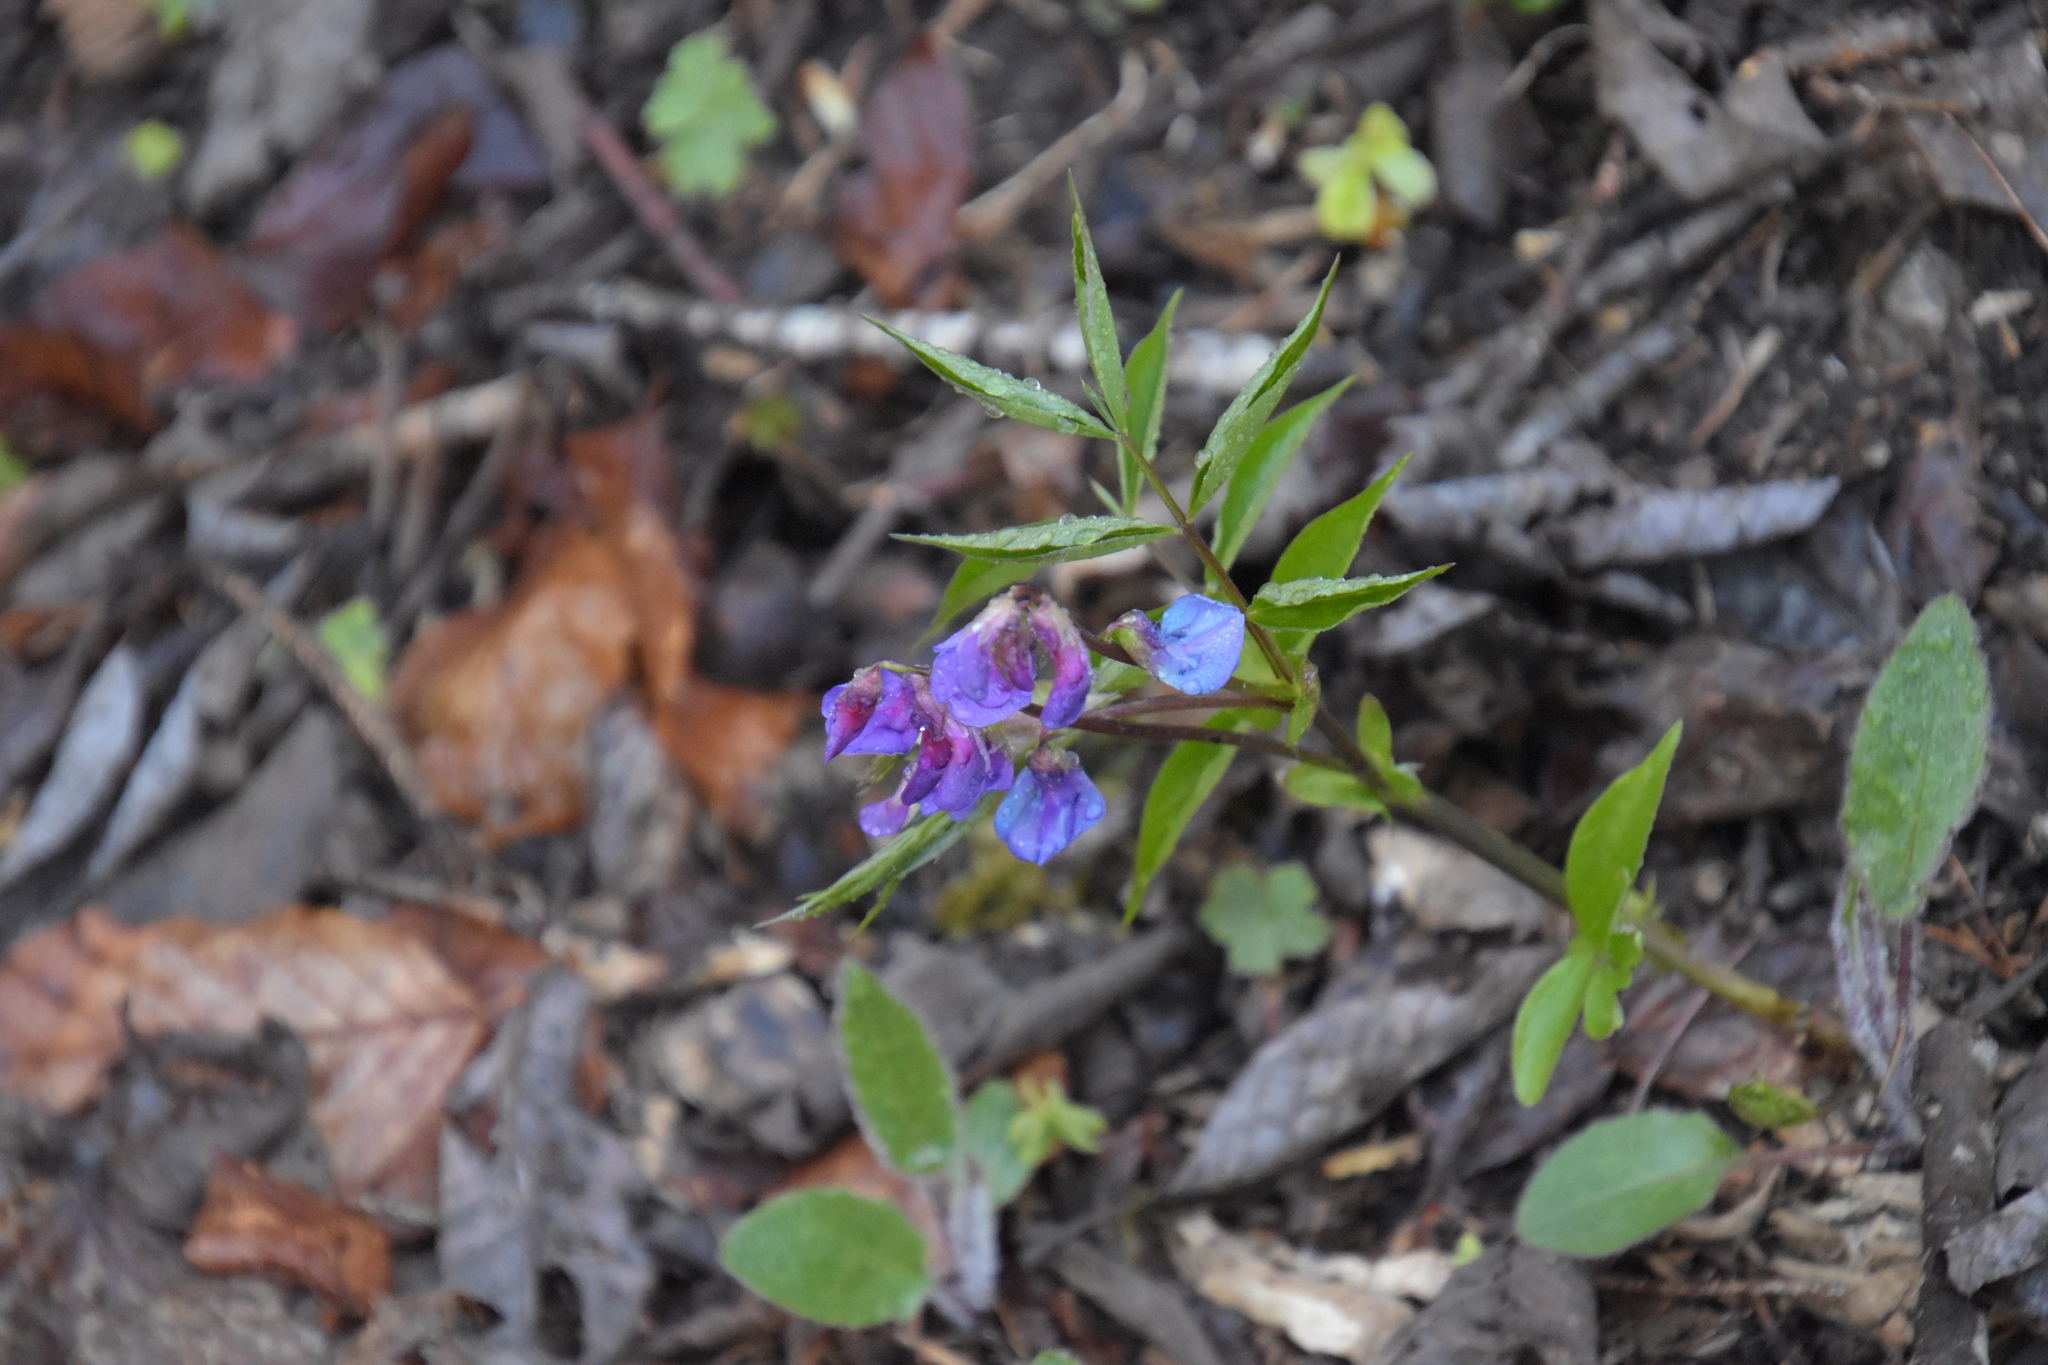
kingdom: Plantae
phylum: Tracheophyta
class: Magnoliopsida
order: Fabales
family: Fabaceae
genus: Lathyrus
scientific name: Lathyrus vernus
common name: Spring pea
